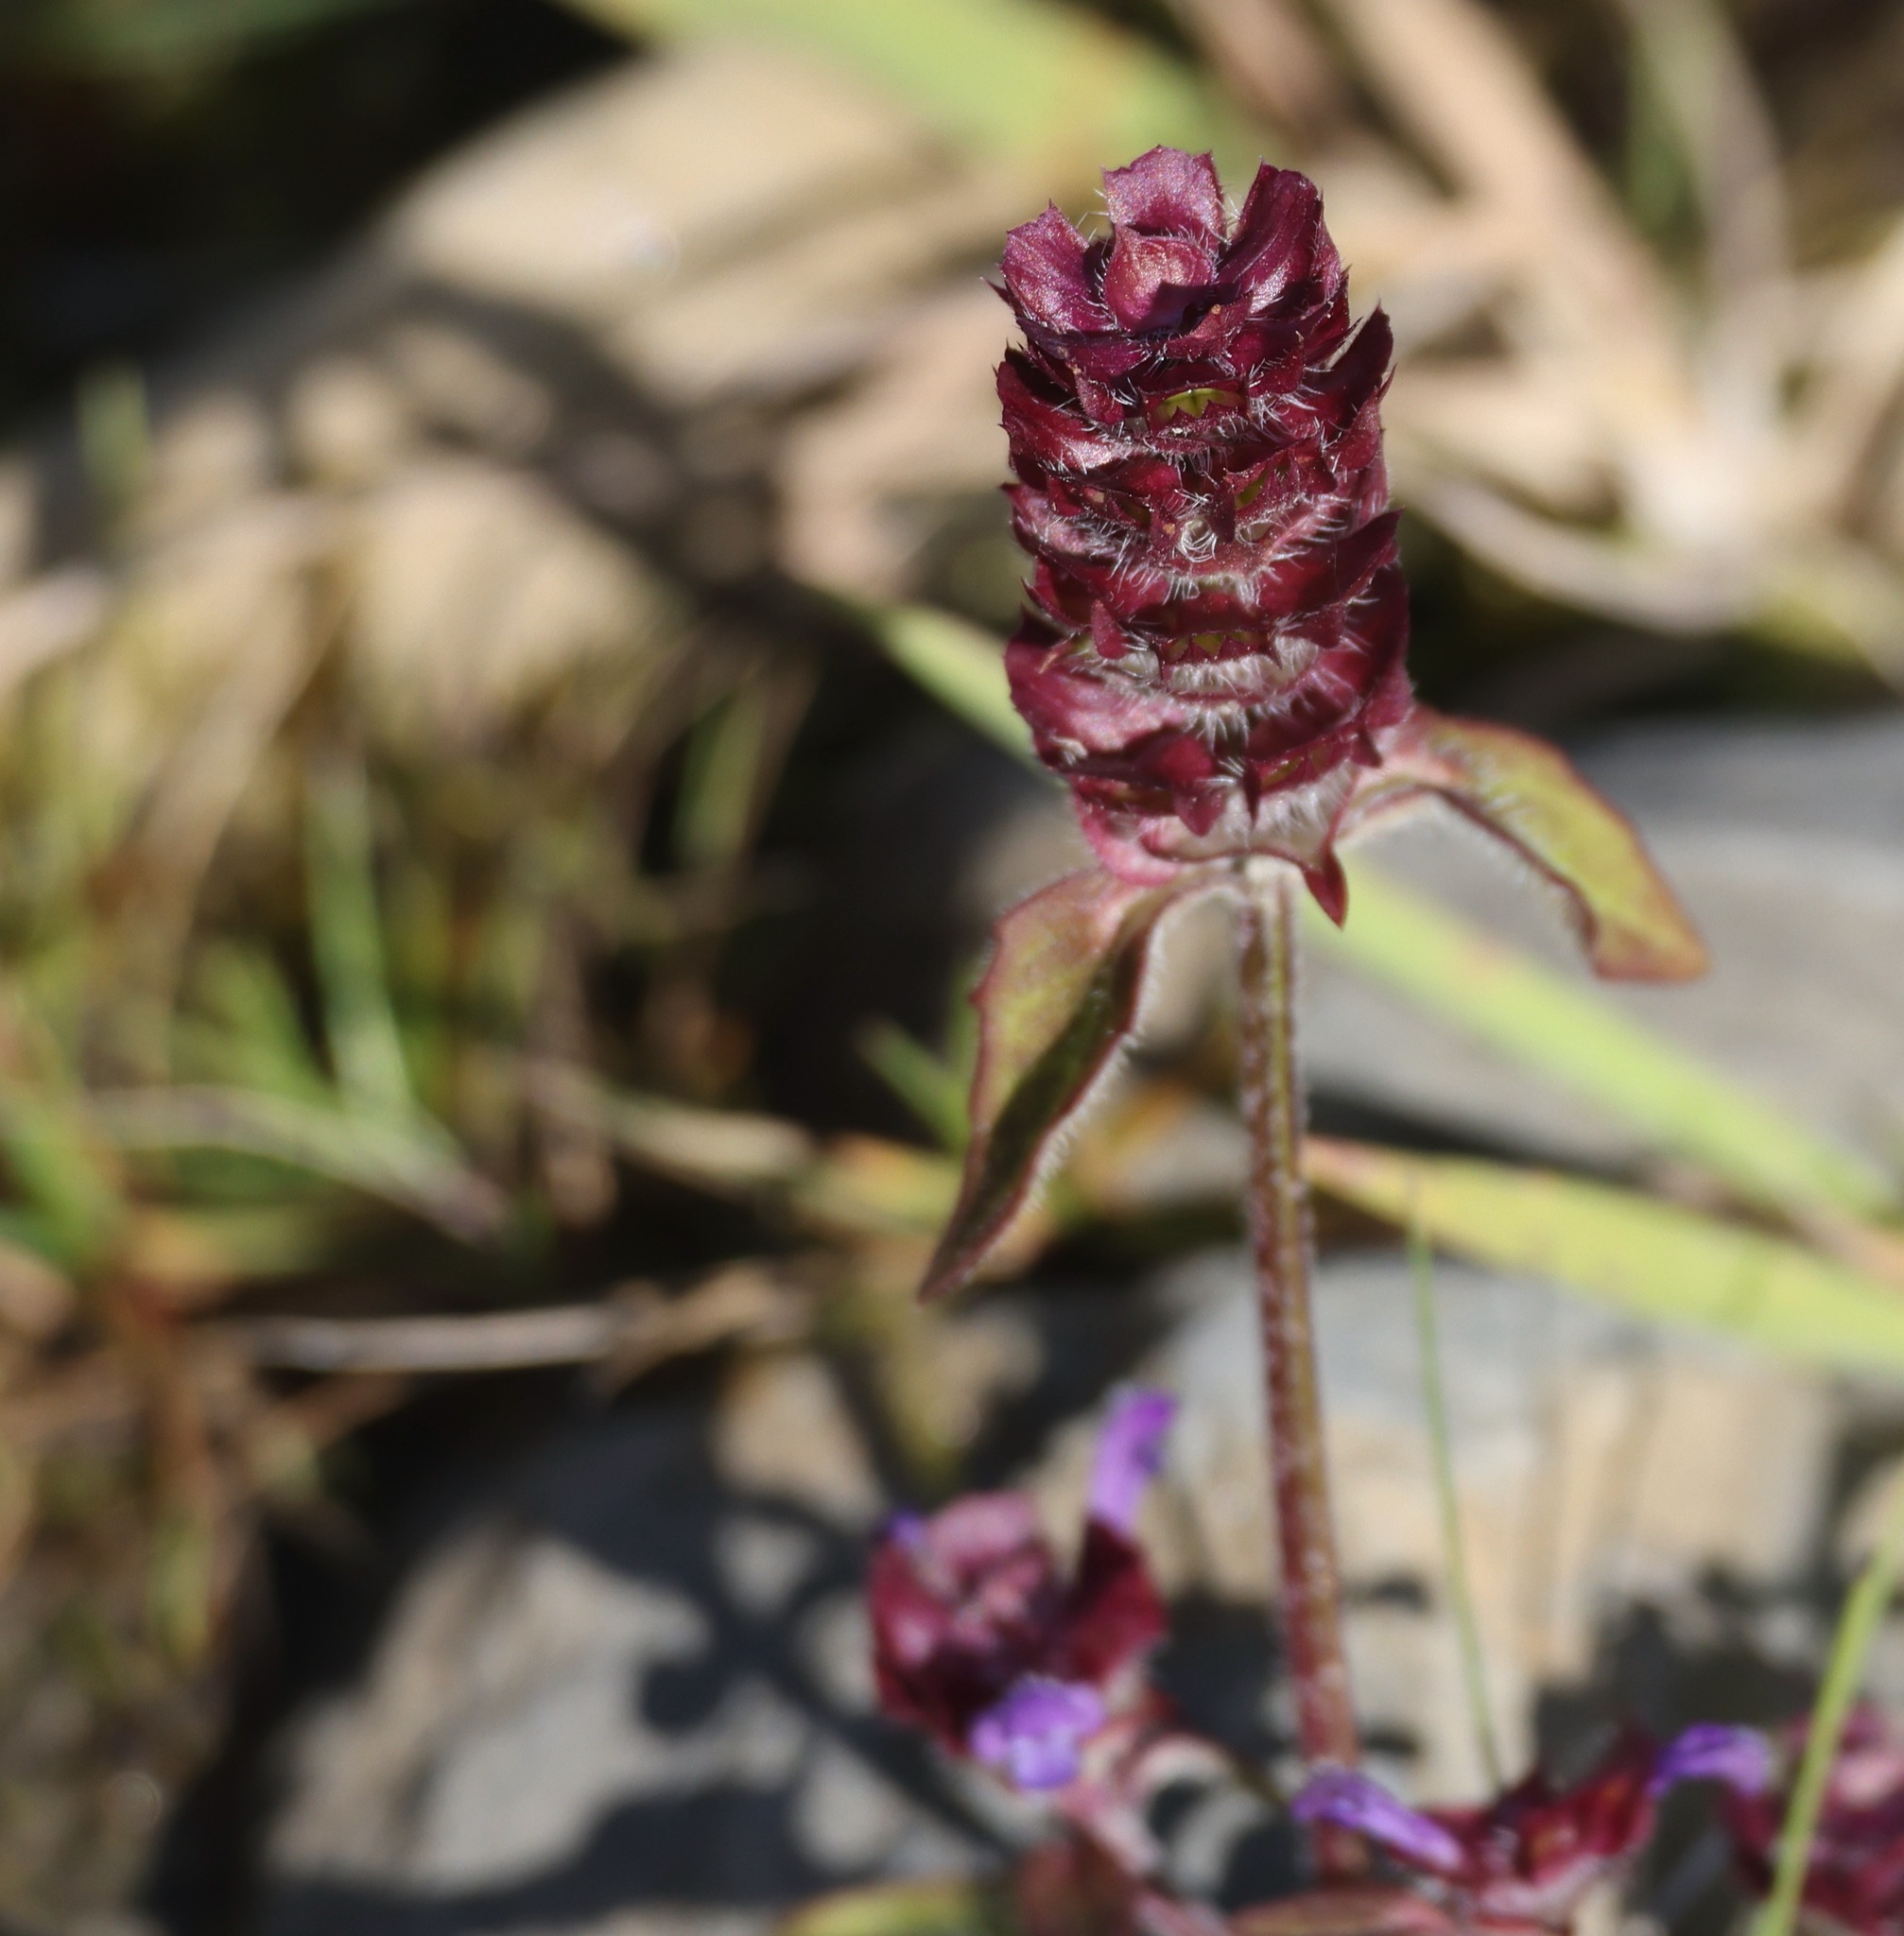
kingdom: Plantae
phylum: Tracheophyta
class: Magnoliopsida
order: Lamiales
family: Lamiaceae
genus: Prunella
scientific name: Prunella vulgaris
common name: Heal-all
